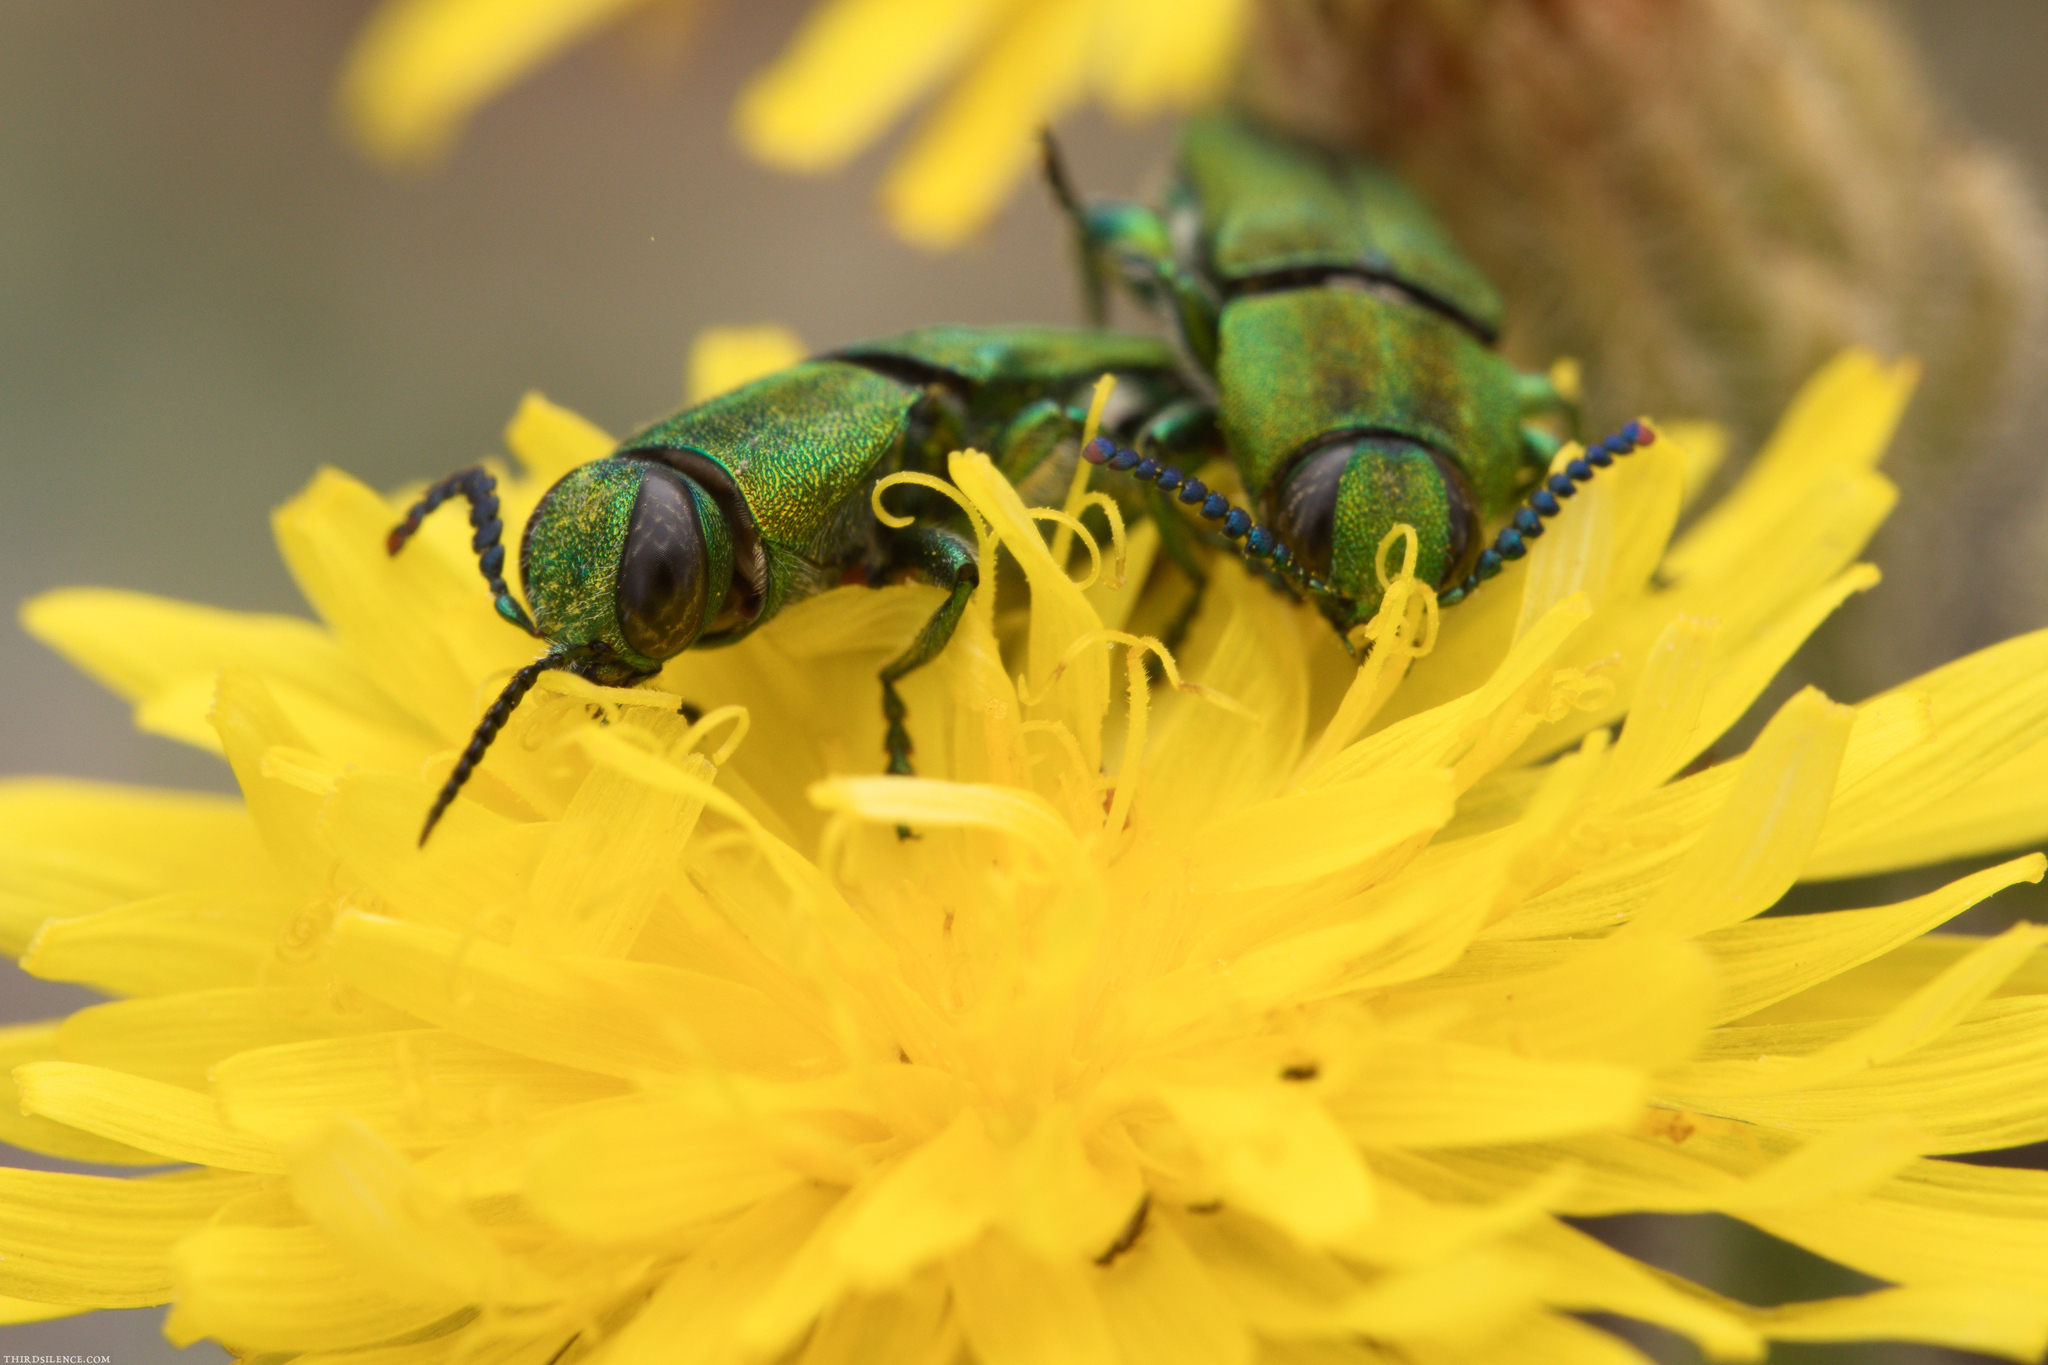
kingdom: Animalia
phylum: Arthropoda
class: Insecta
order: Coleoptera
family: Buprestidae
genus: Anthaxia
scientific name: Anthaxia hungarica
